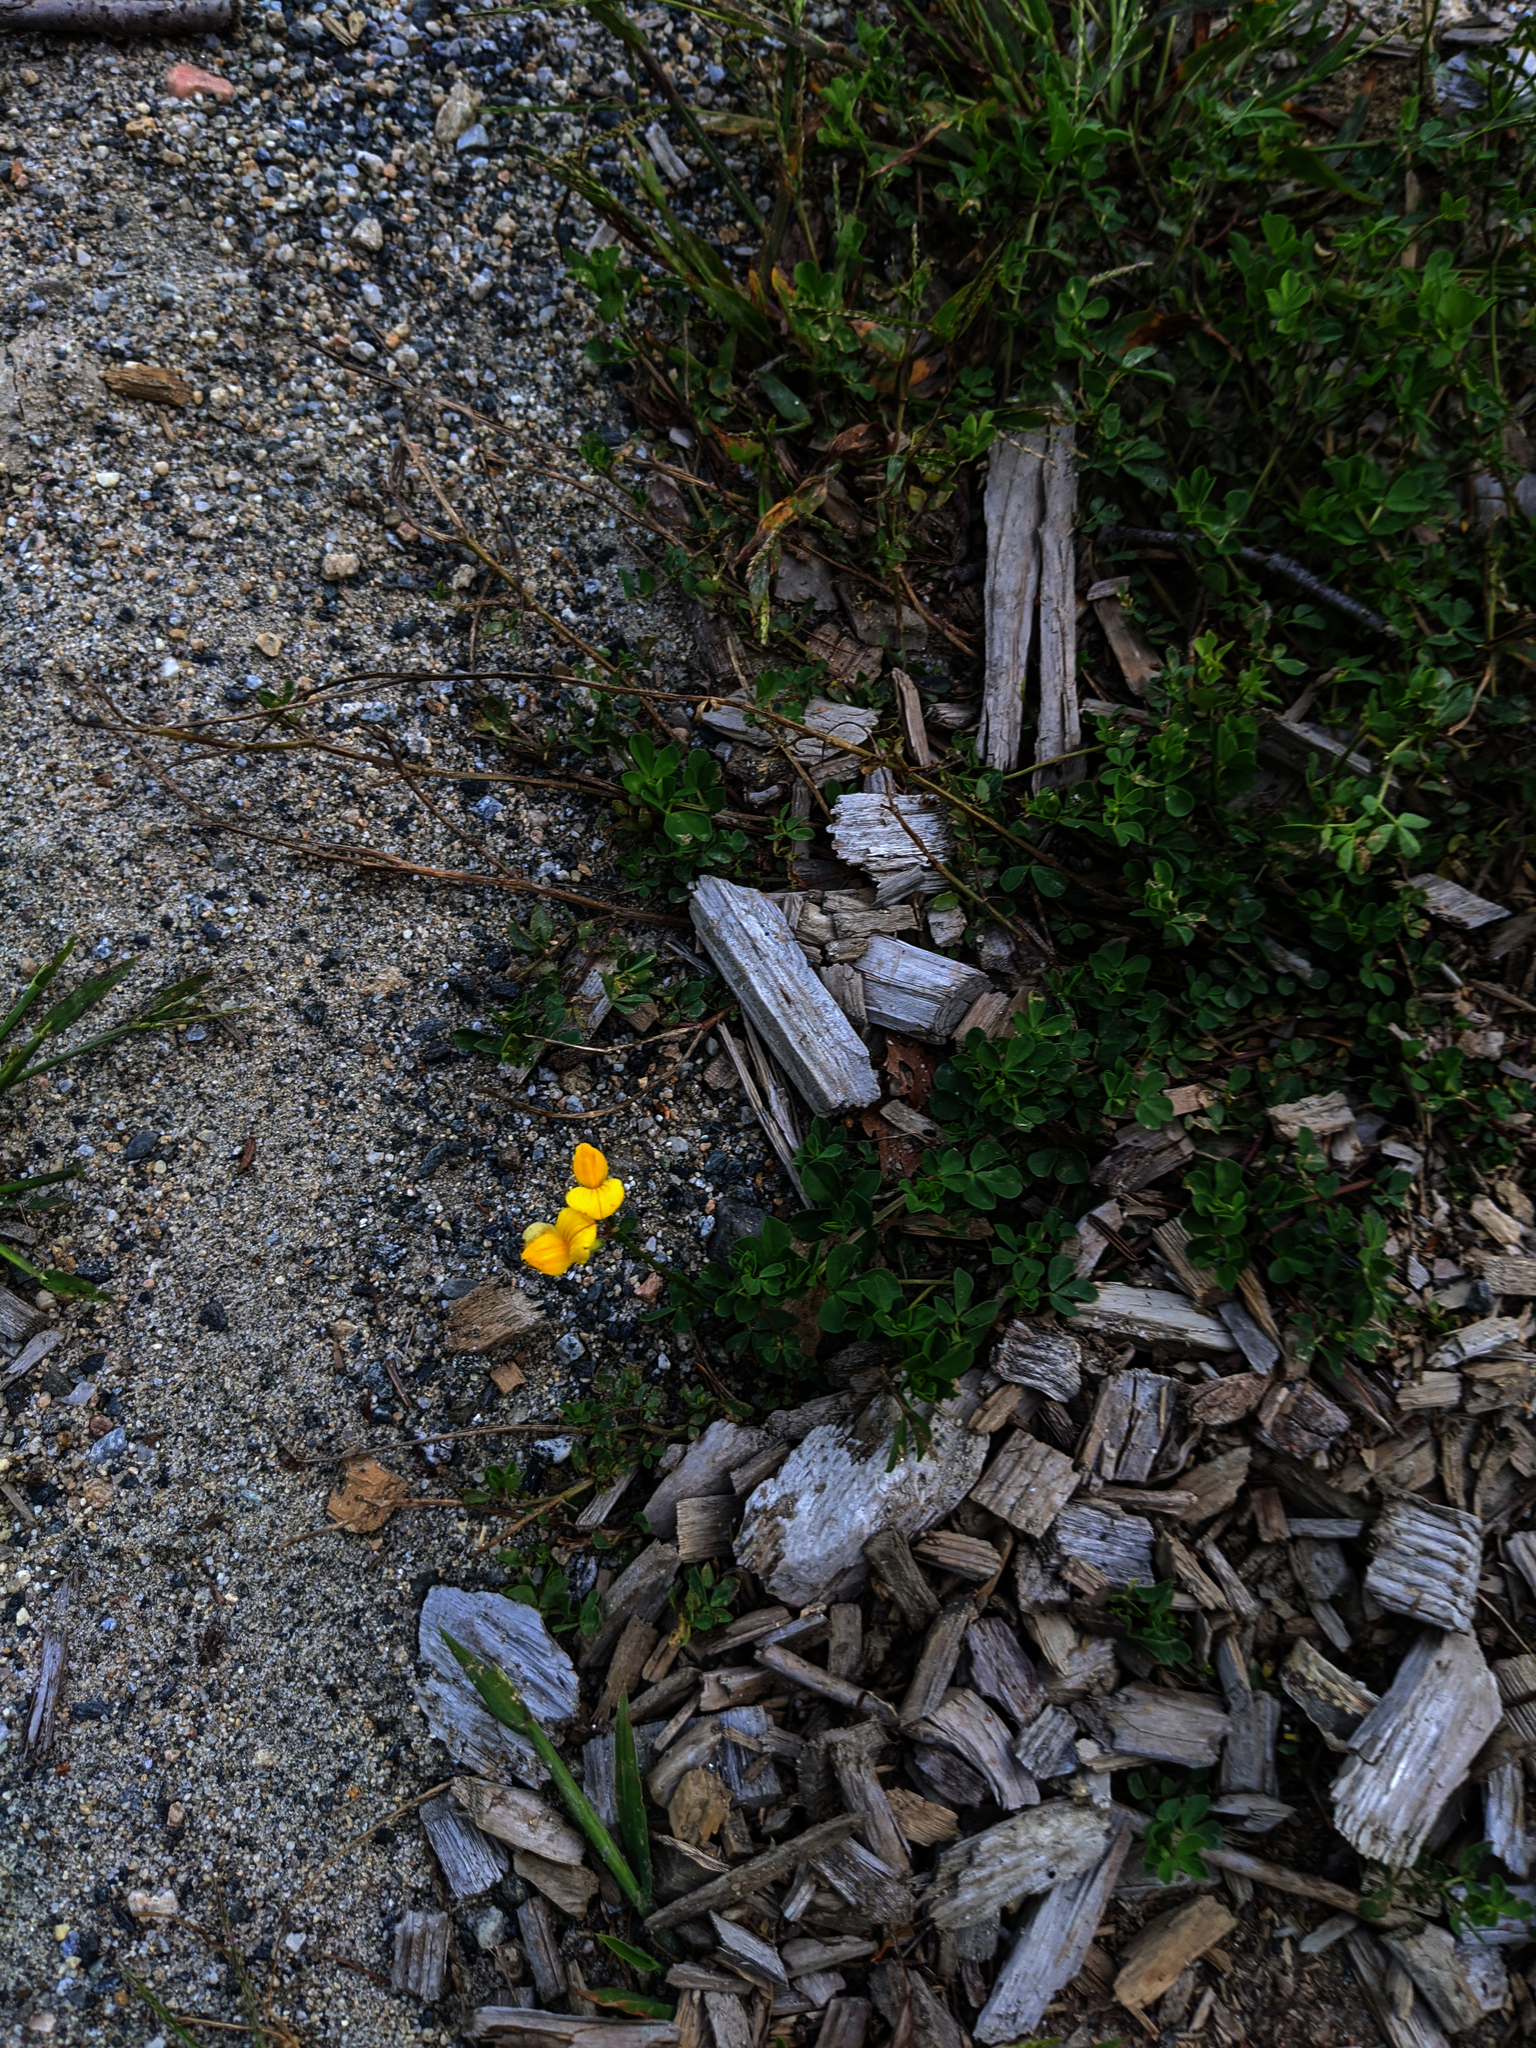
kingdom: Plantae
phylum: Tracheophyta
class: Magnoliopsida
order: Fabales
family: Fabaceae
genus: Lotus
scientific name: Lotus corniculatus
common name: Common bird's-foot-trefoil
